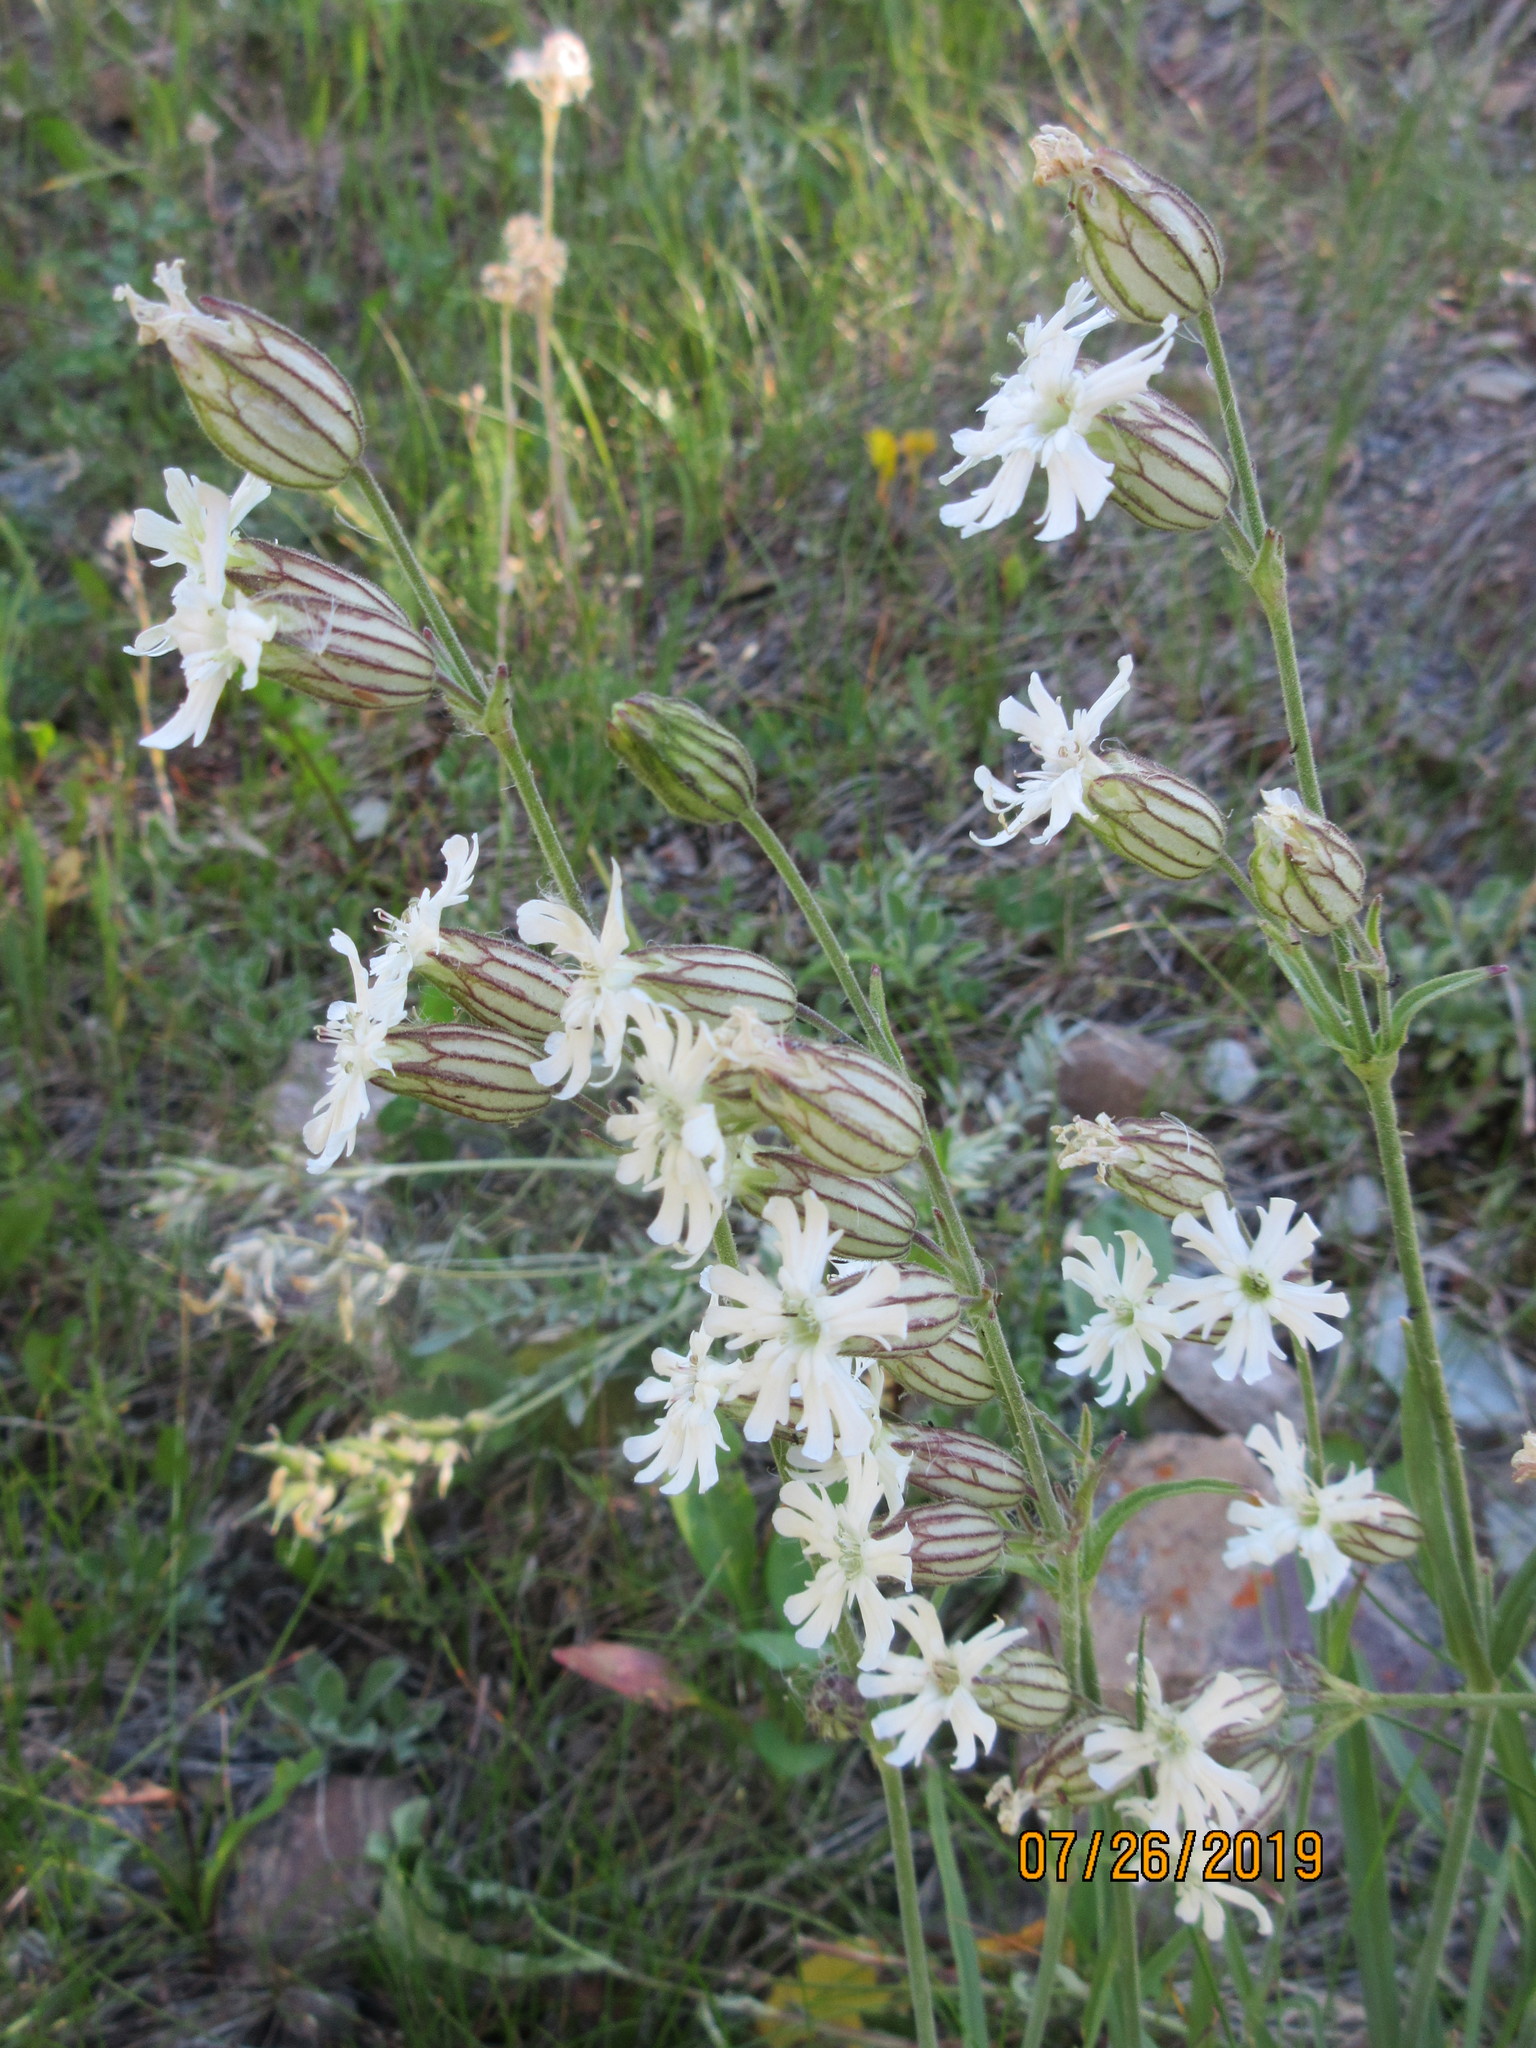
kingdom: Plantae
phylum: Tracheophyta
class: Magnoliopsida
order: Caryophyllales
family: Caryophyllaceae
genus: Silene
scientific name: Silene parryi
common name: Parry's campion
